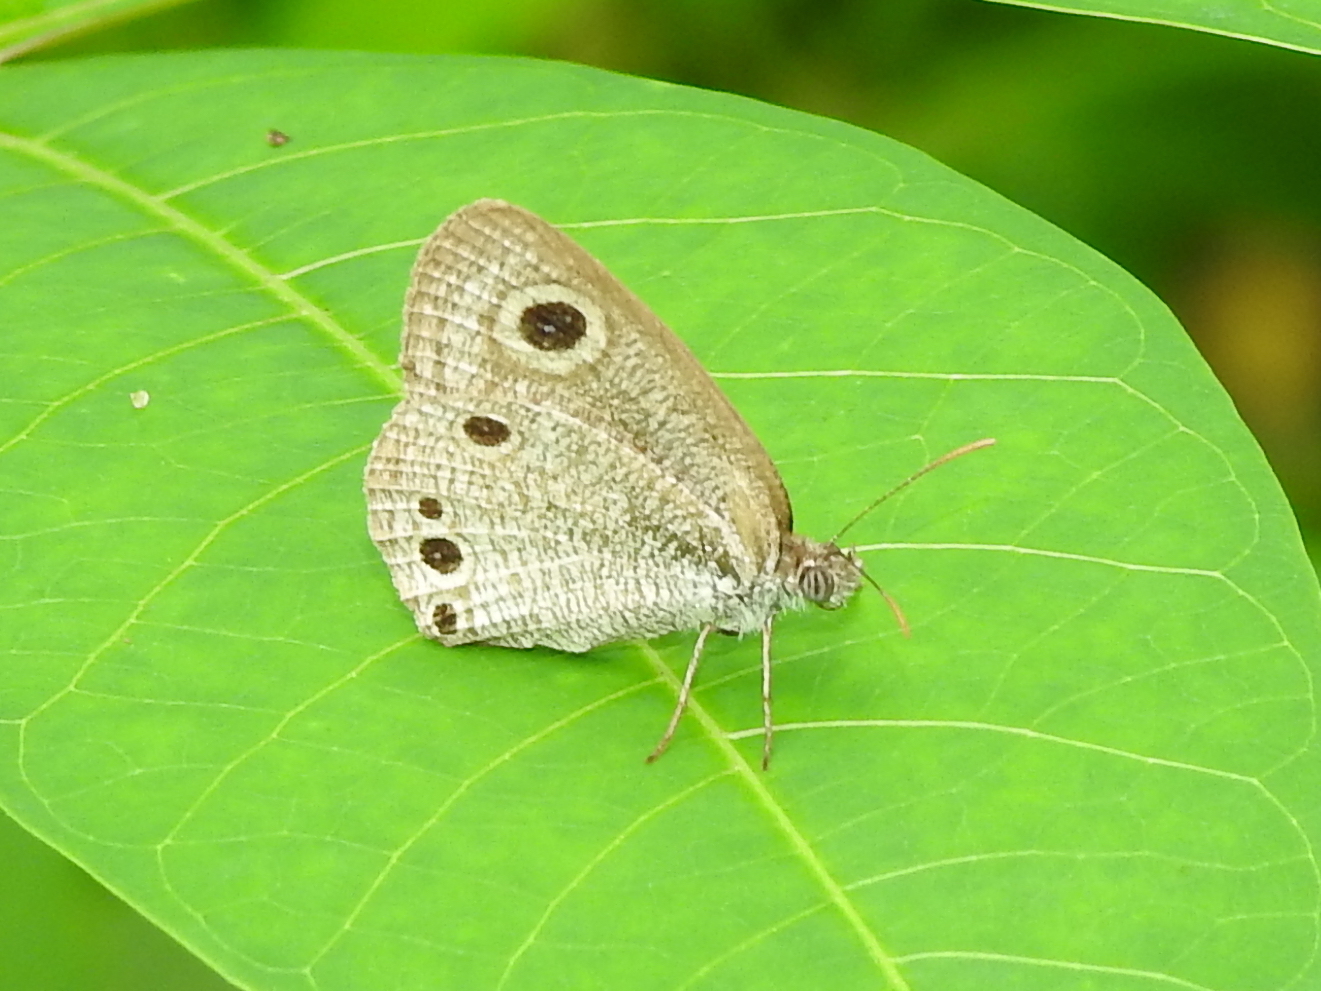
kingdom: Animalia
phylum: Arthropoda
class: Insecta
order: Lepidoptera
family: Nymphalidae
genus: Ypthima
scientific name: Ypthima huebneri
